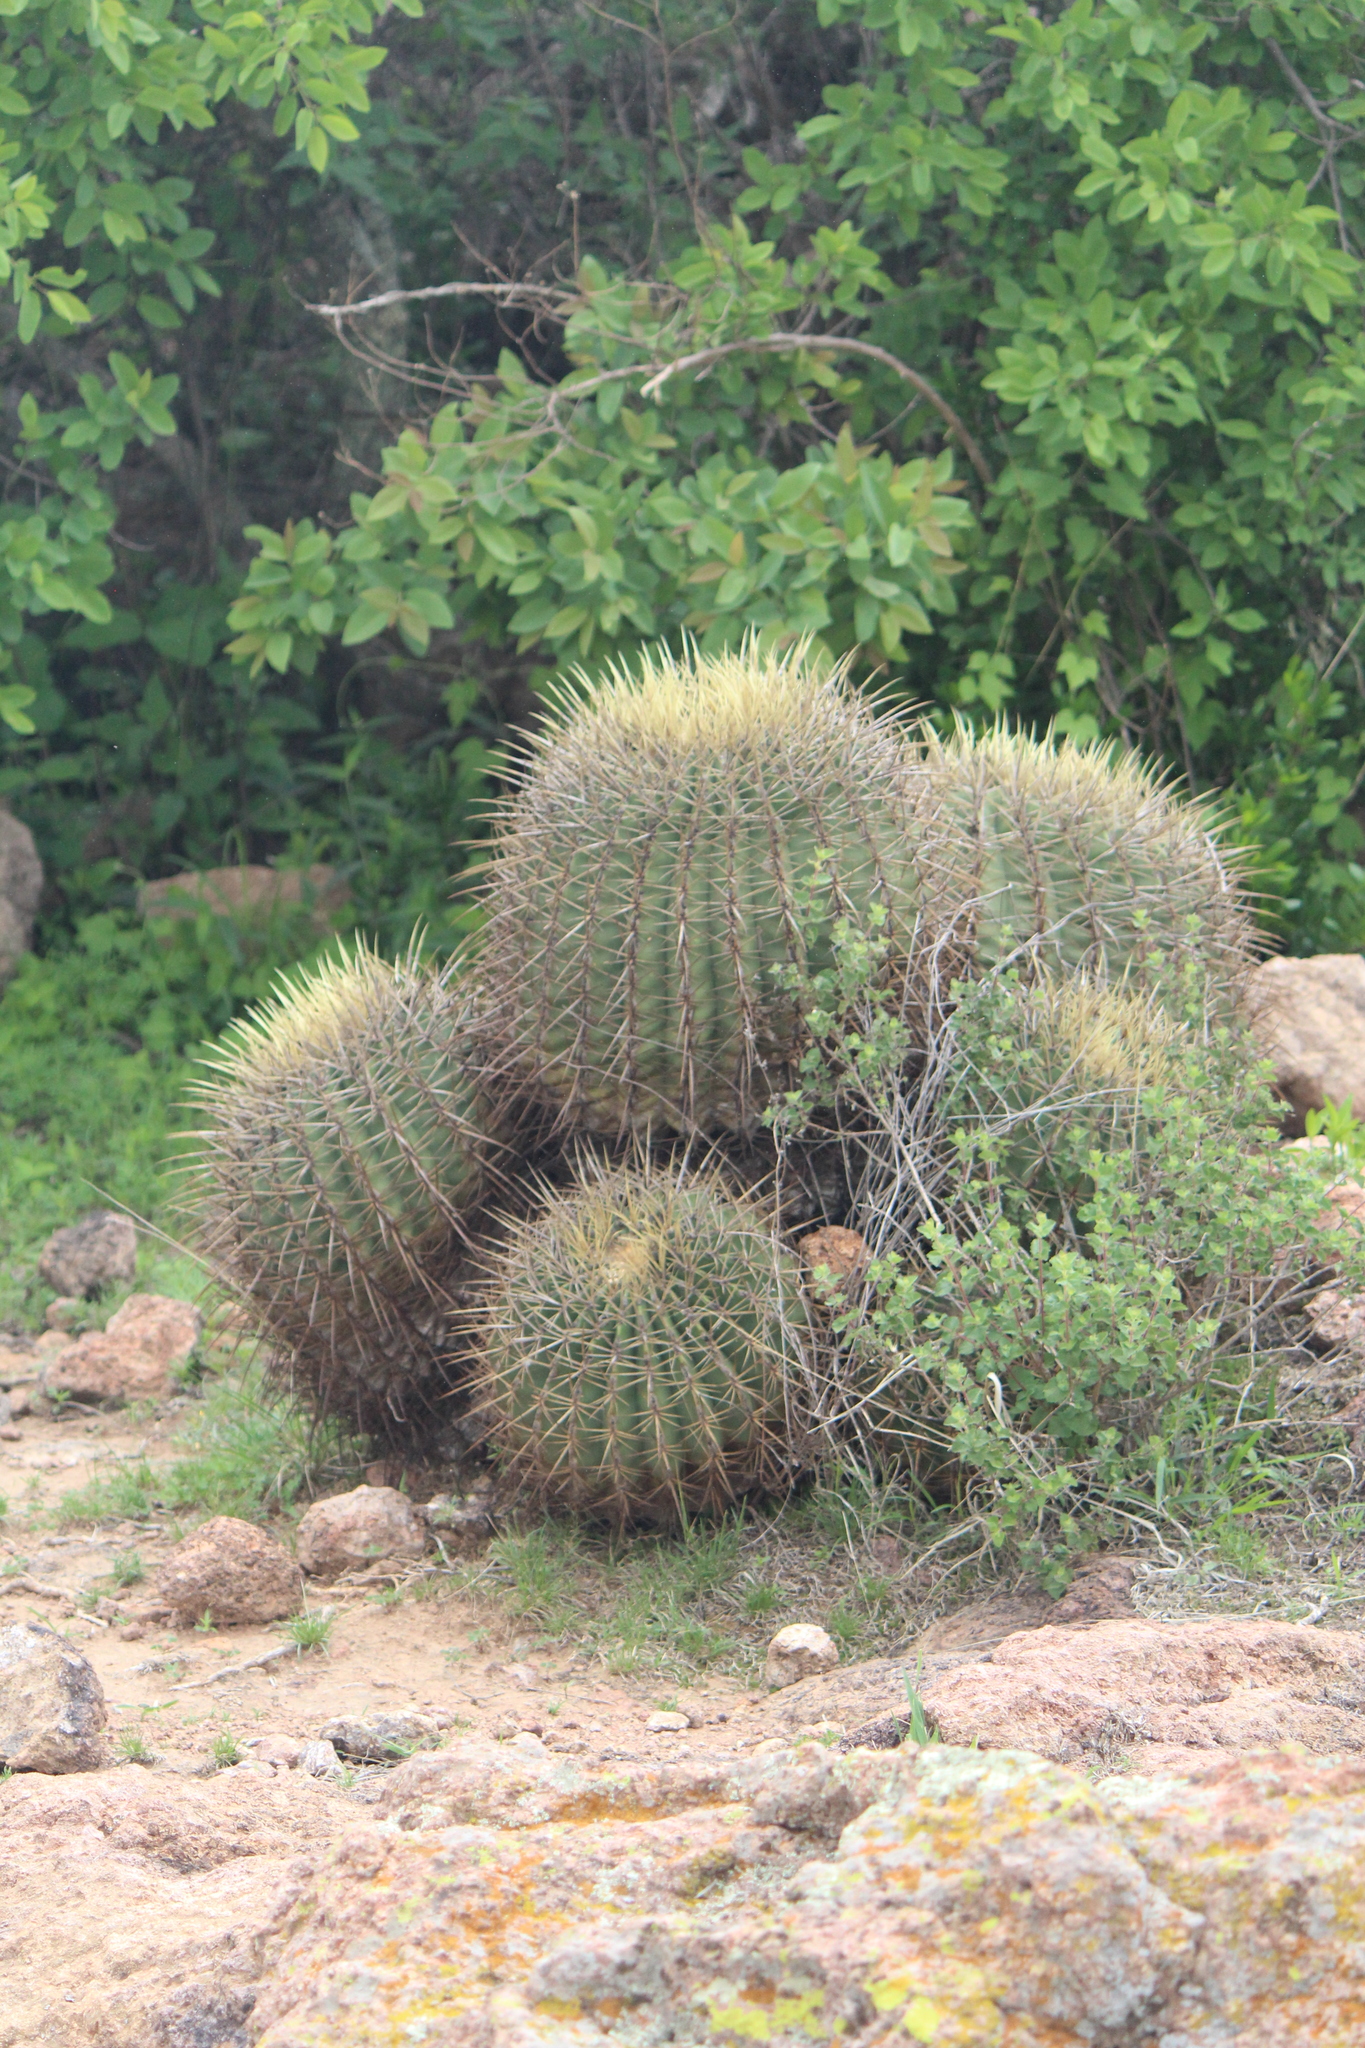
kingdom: Plantae
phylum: Tracheophyta
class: Magnoliopsida
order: Caryophyllales
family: Cactaceae
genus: Bisnaga
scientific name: Bisnaga histrix
